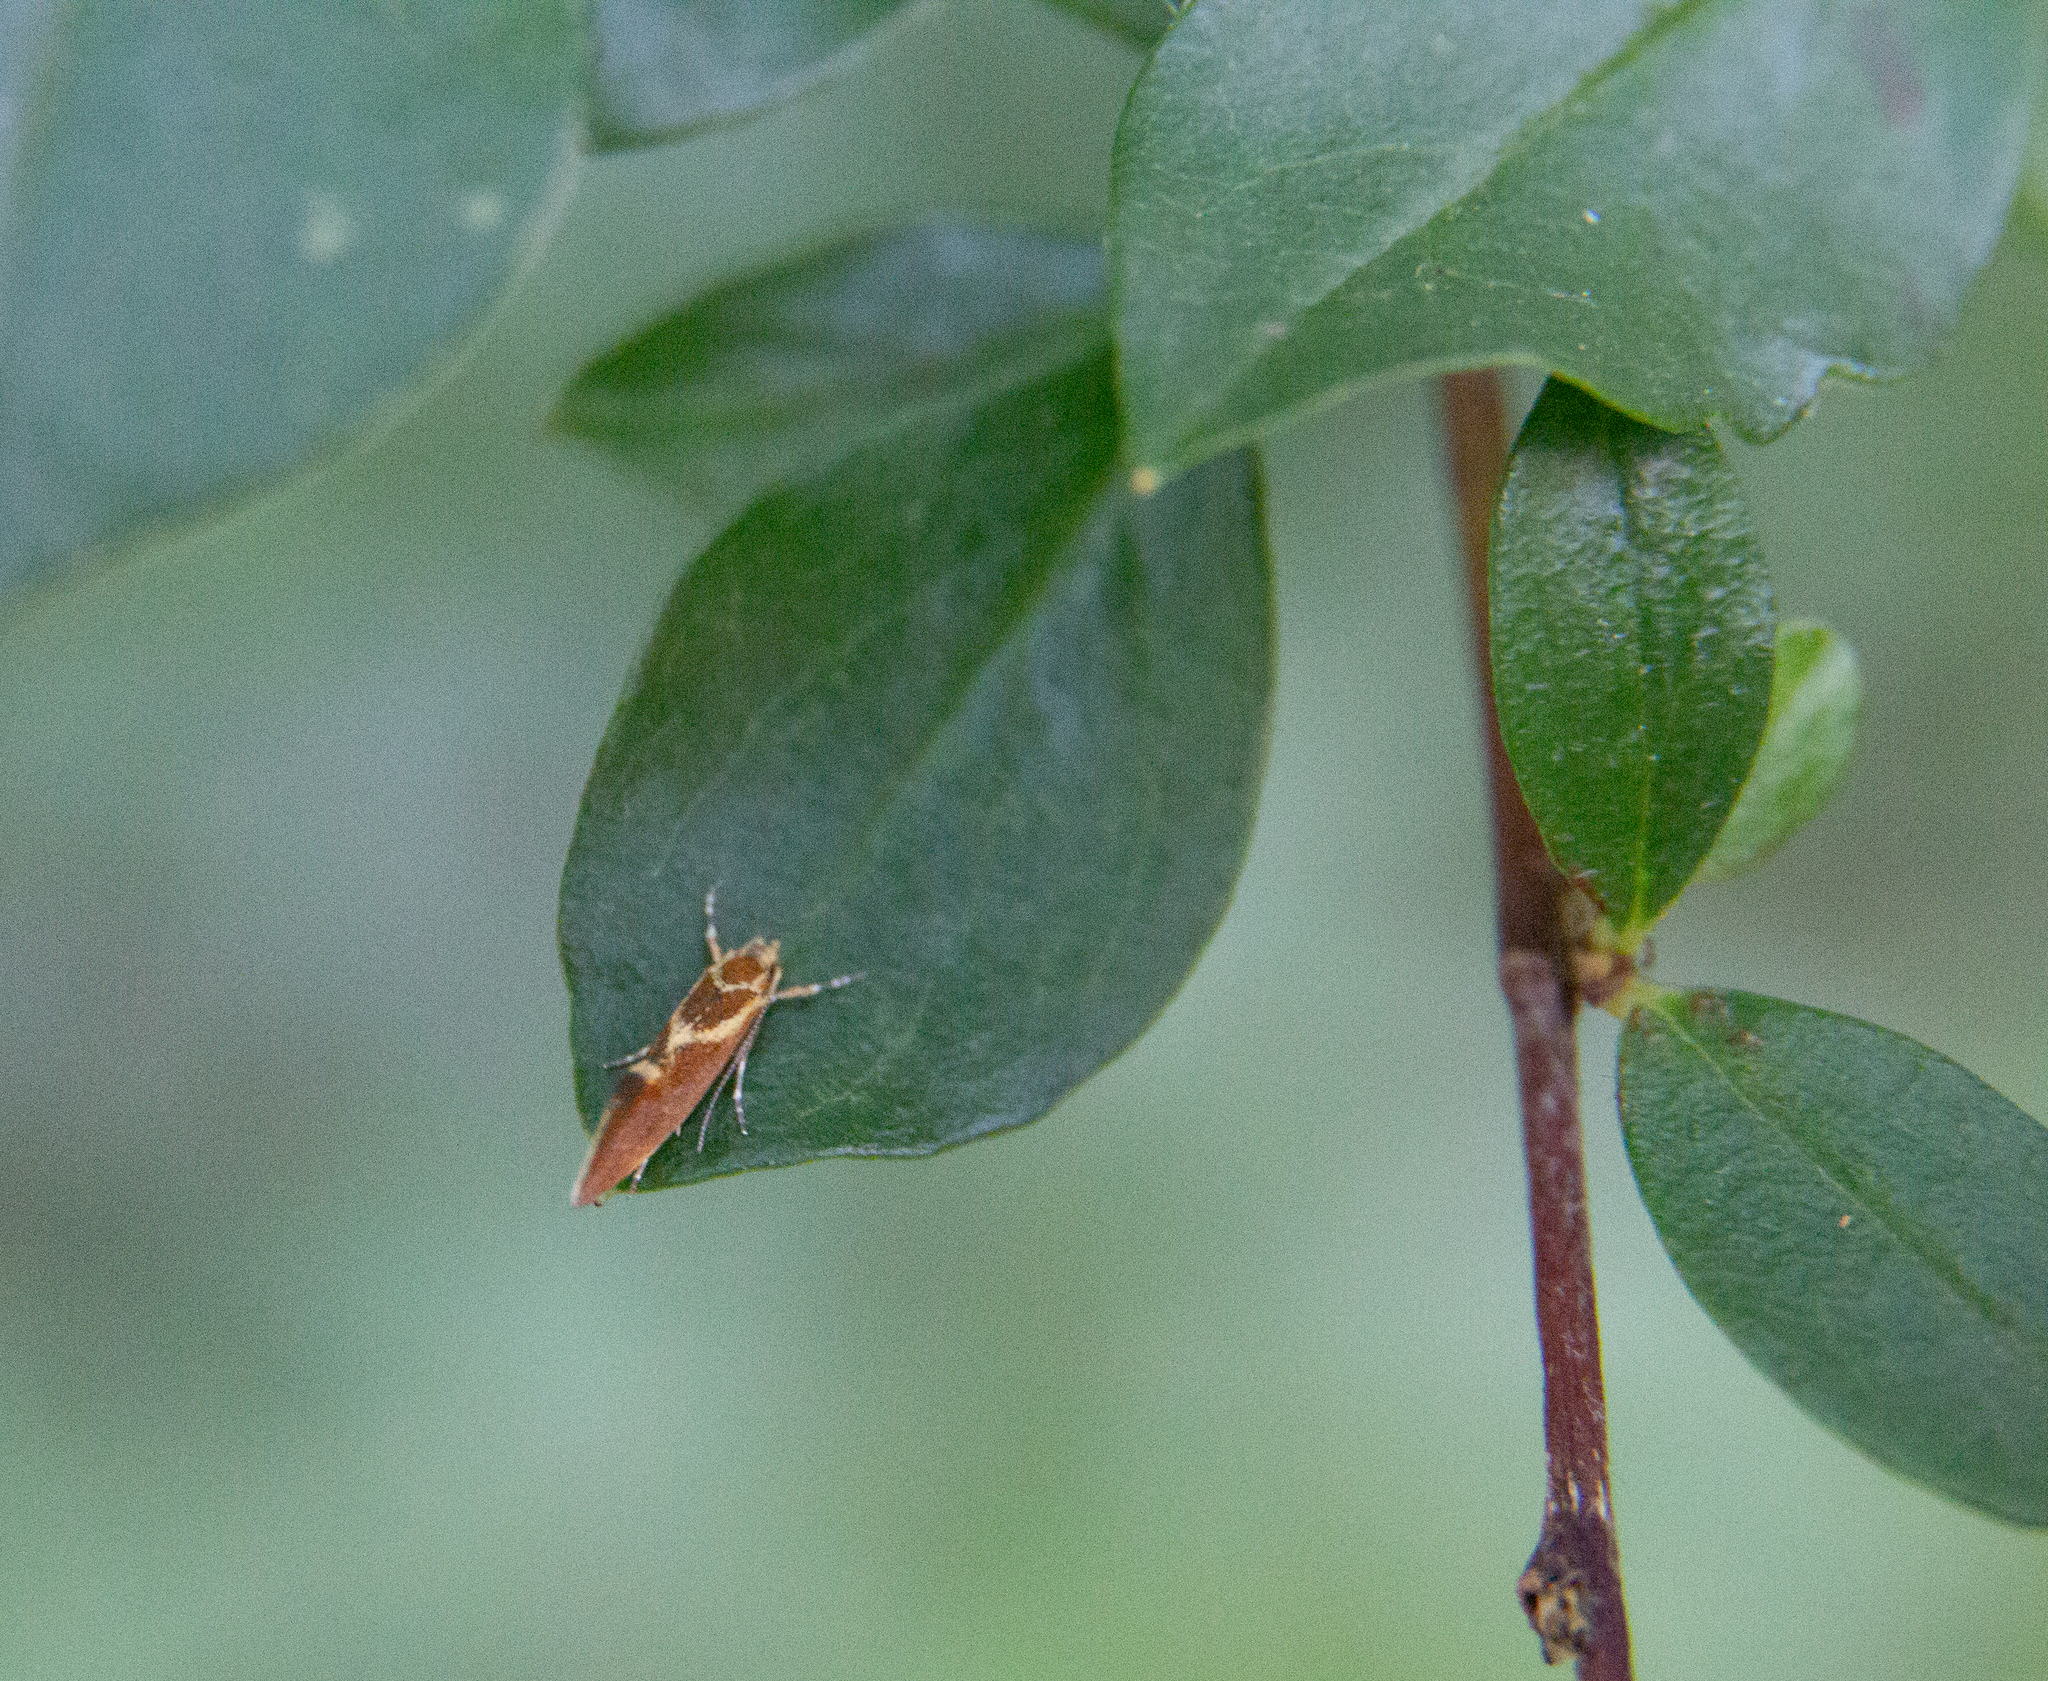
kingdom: Animalia
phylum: Arthropoda
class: Insecta
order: Lepidoptera
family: Oecophoridae
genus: Borkhausenia
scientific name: Borkhausenia italica
